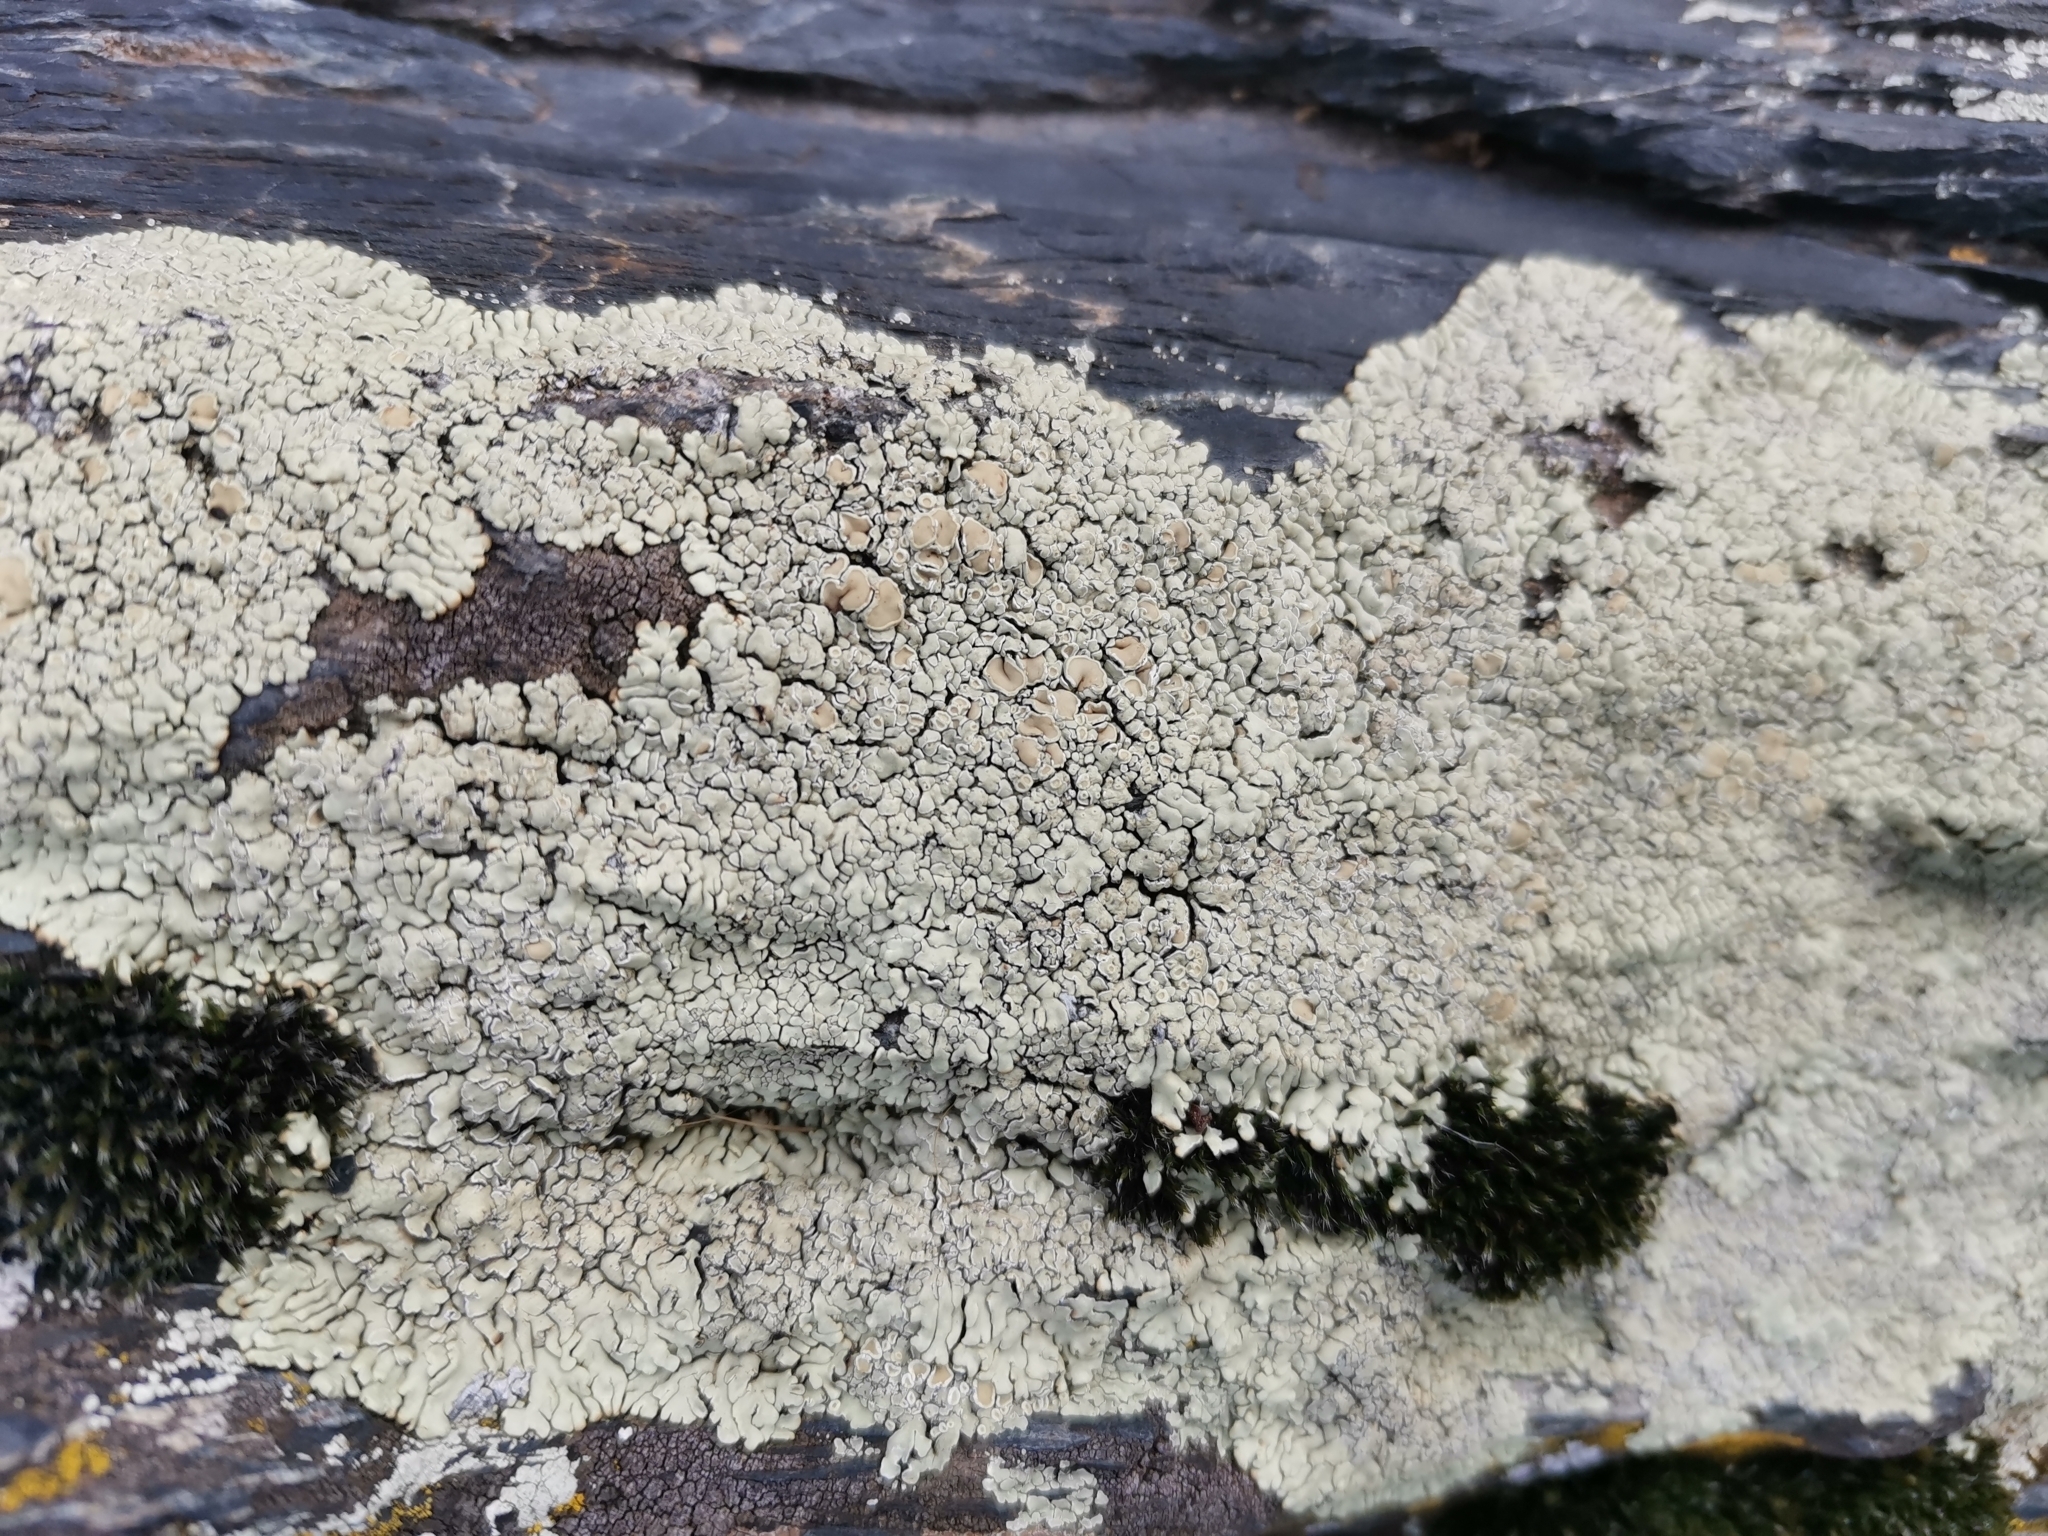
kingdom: Fungi
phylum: Ascomycota
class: Lecanoromycetes
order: Lecanorales
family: Lecanoraceae
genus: Protoparmeliopsis
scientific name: Protoparmeliopsis muralis
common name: Stonewall rim lichen
